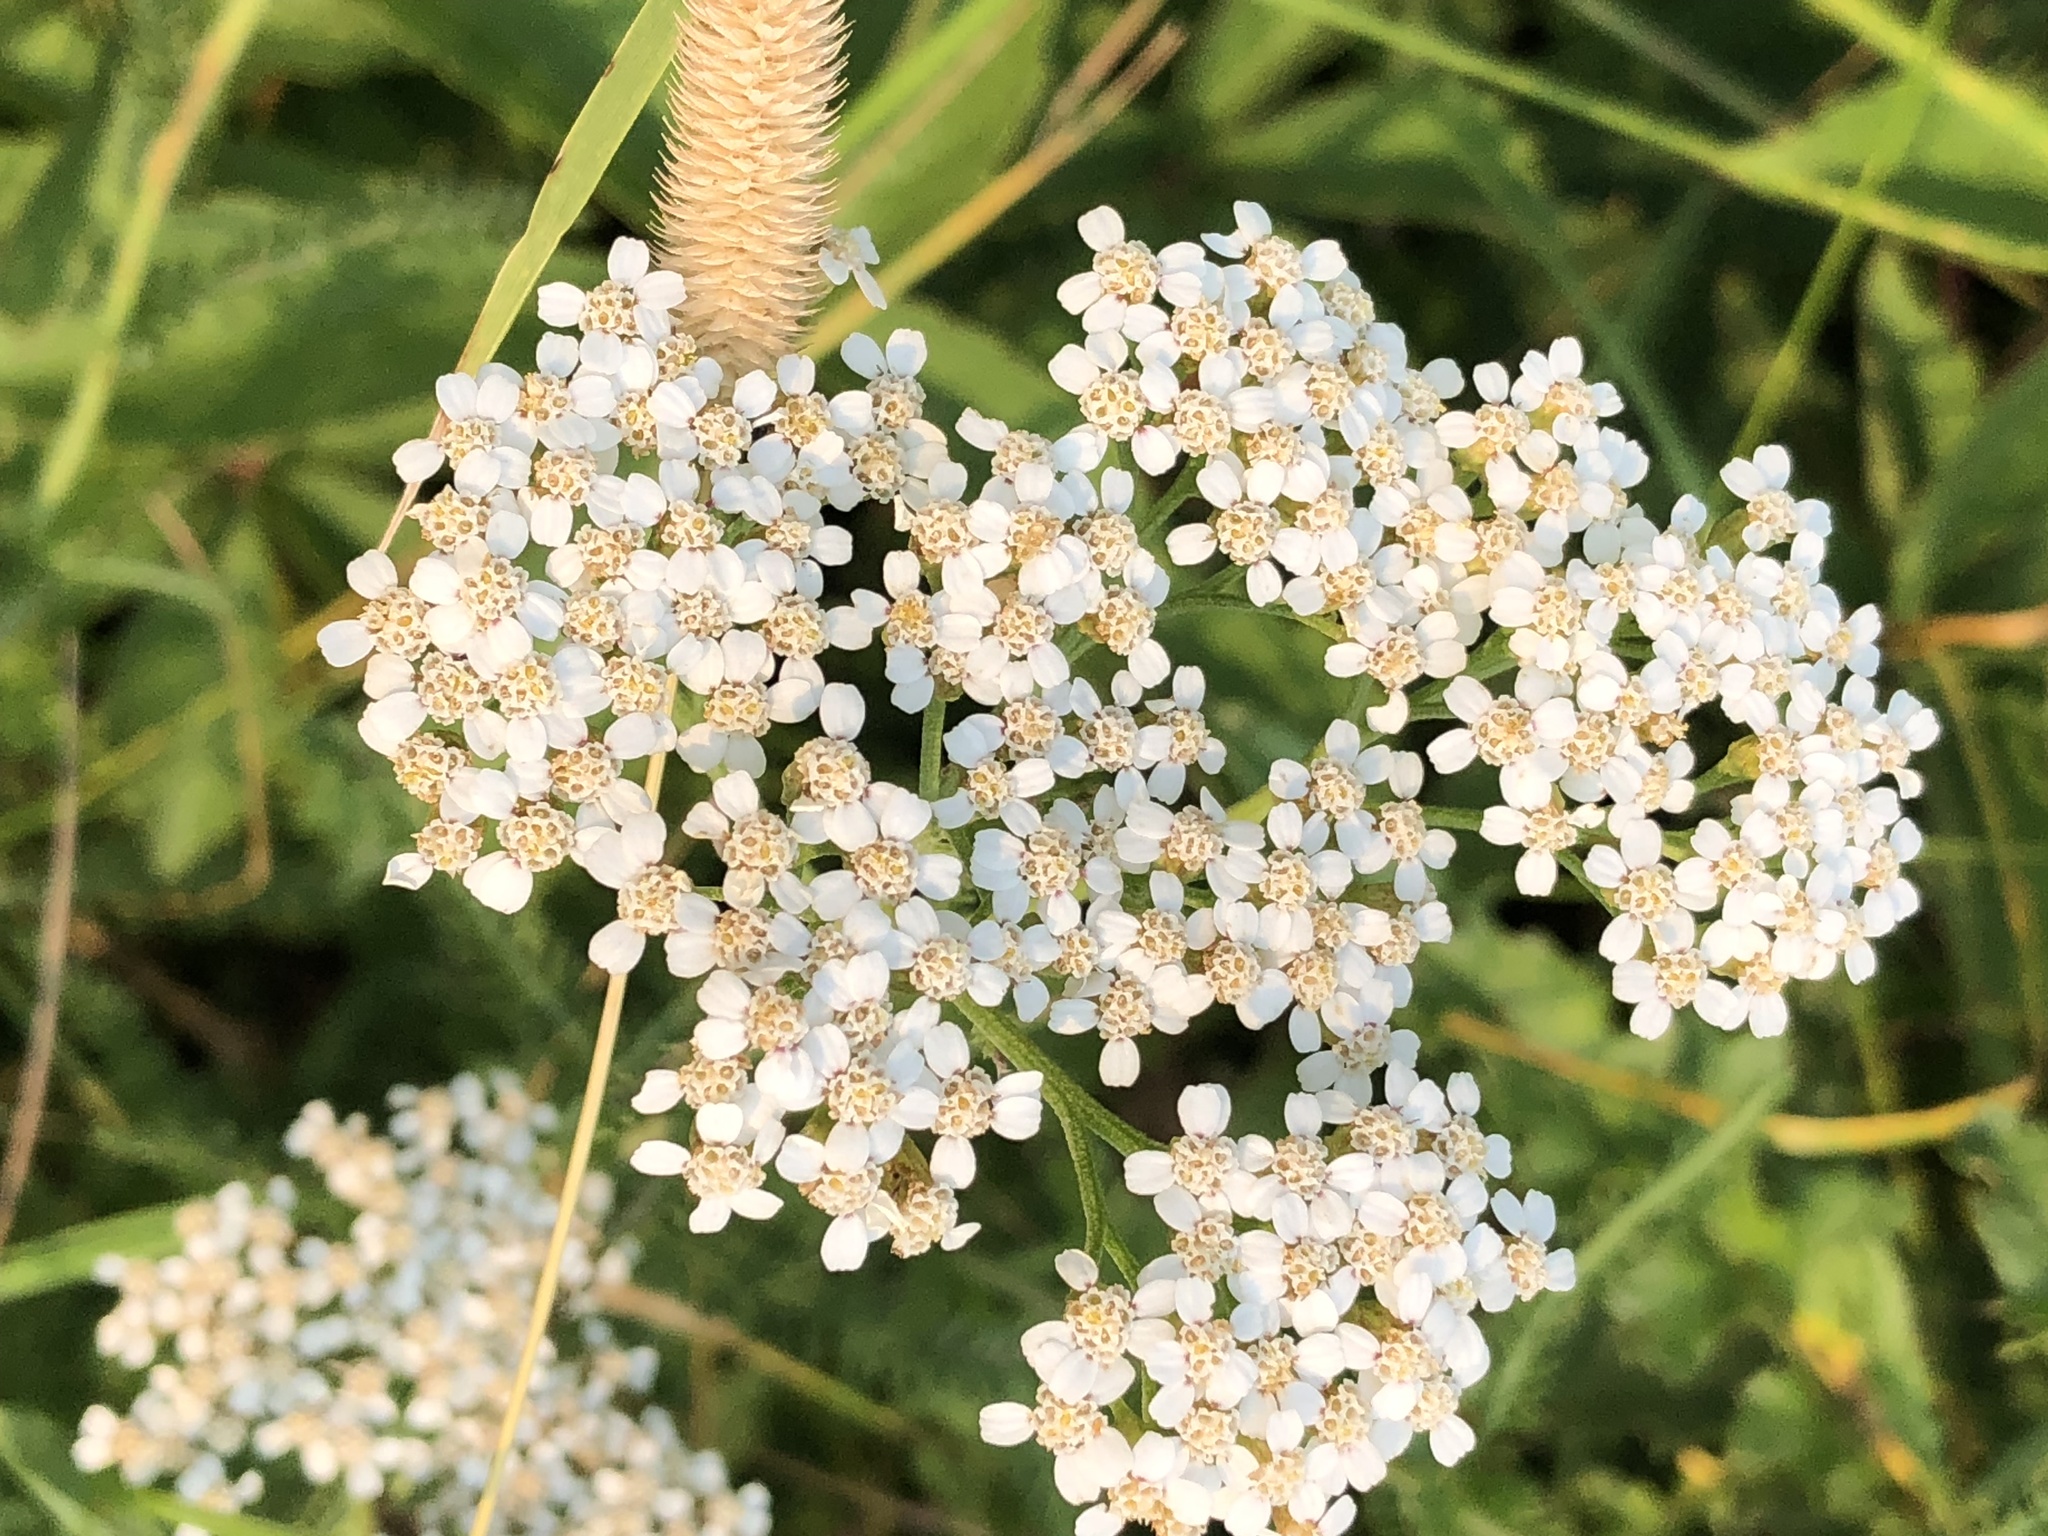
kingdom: Plantae
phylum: Tracheophyta
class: Magnoliopsida
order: Asterales
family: Asteraceae
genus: Achillea
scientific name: Achillea millefolium
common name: Yarrow
